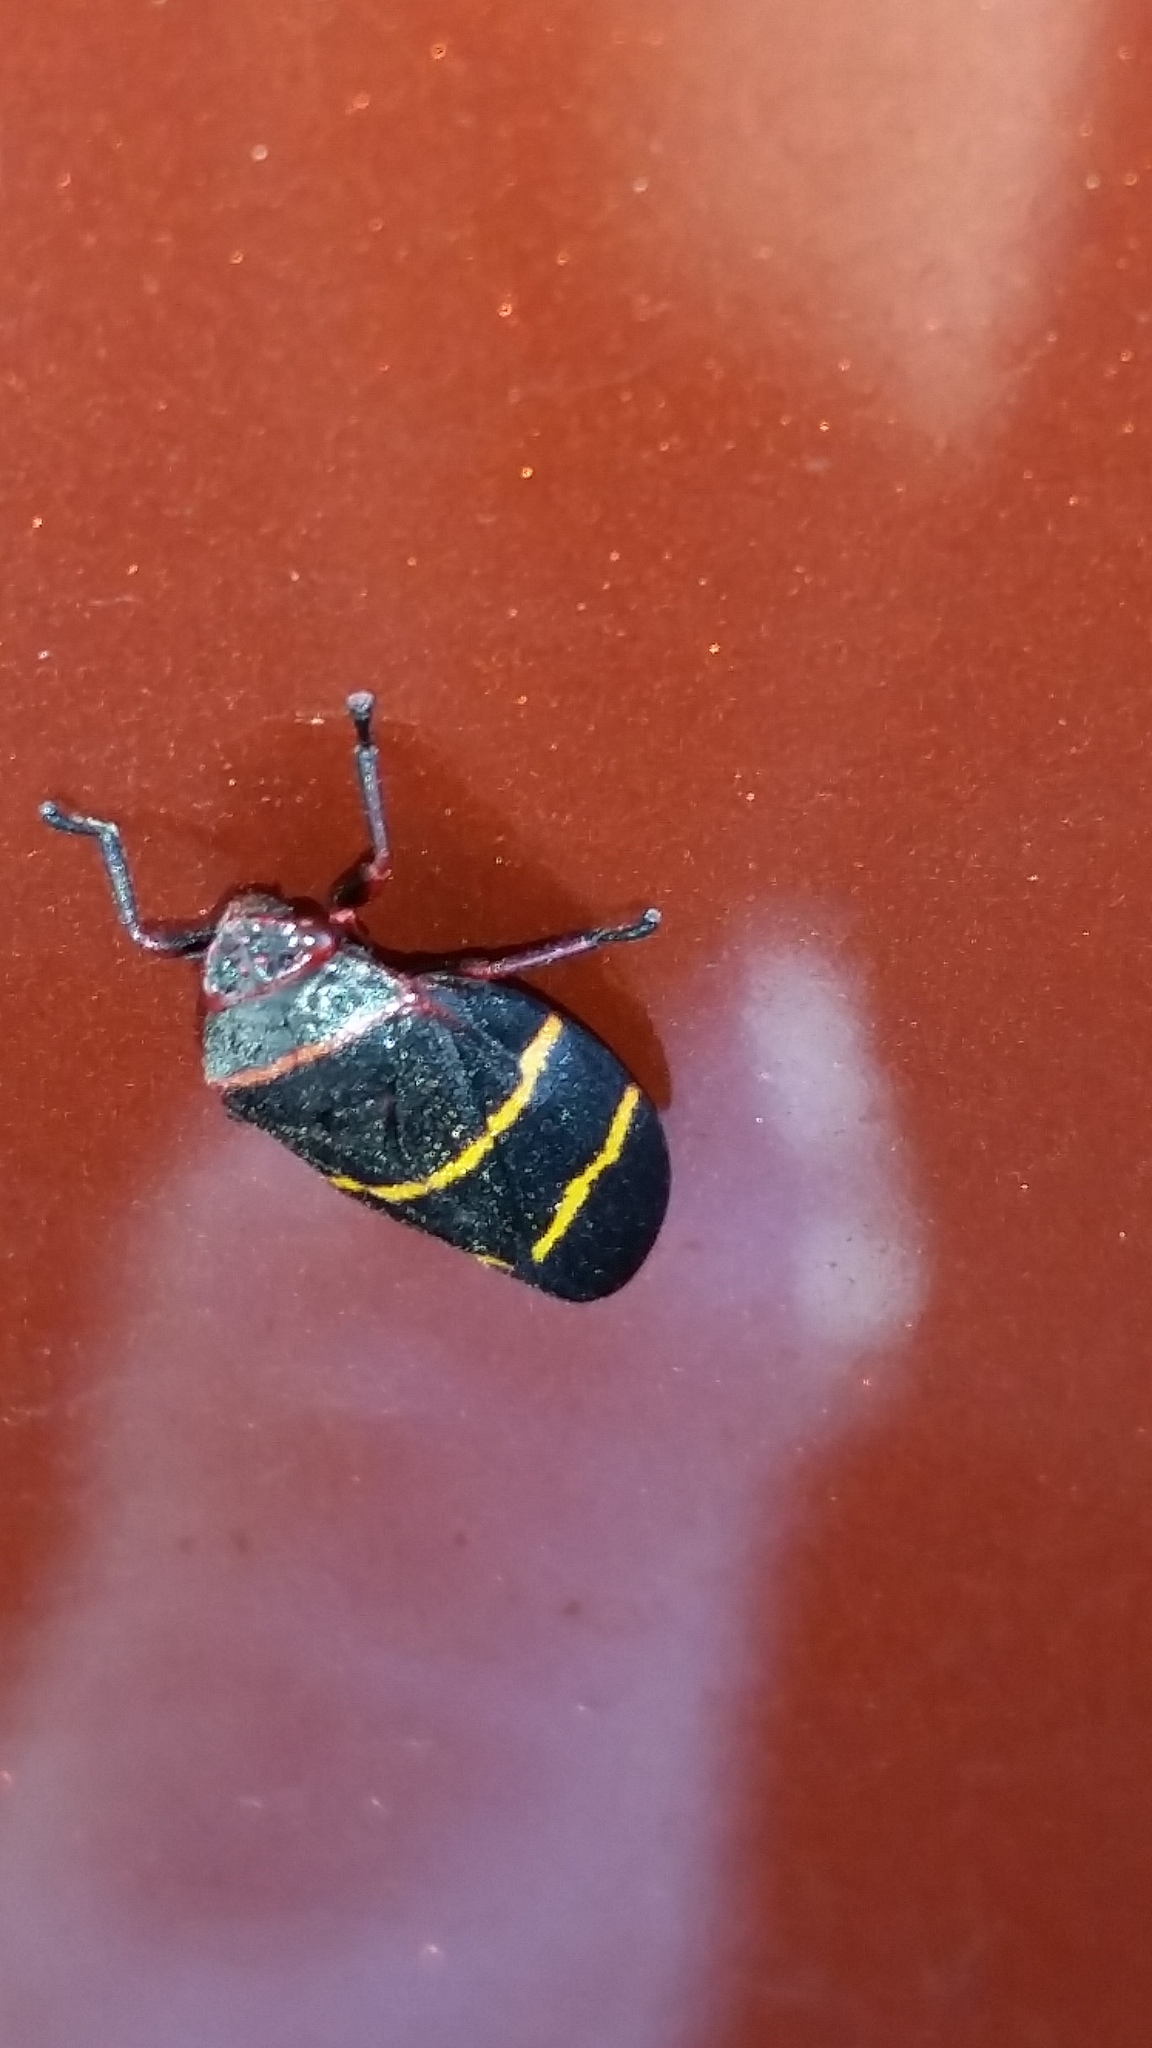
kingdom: Animalia
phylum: Arthropoda
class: Insecta
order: Hemiptera
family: Cercopidae
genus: Prosapia
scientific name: Prosapia bicincta
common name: Twolined spittlebug
